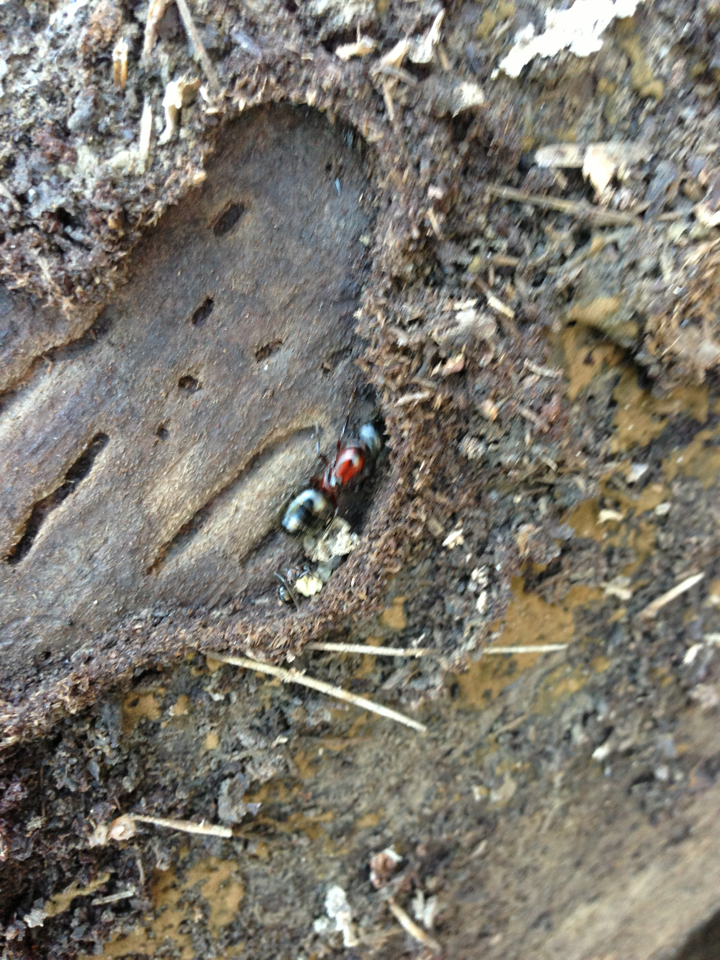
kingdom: Animalia
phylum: Arthropoda
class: Insecta
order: Hymenoptera
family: Formicidae
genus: Camponotus
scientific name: Camponotus novaeboracensis
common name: New york carpenter ant
